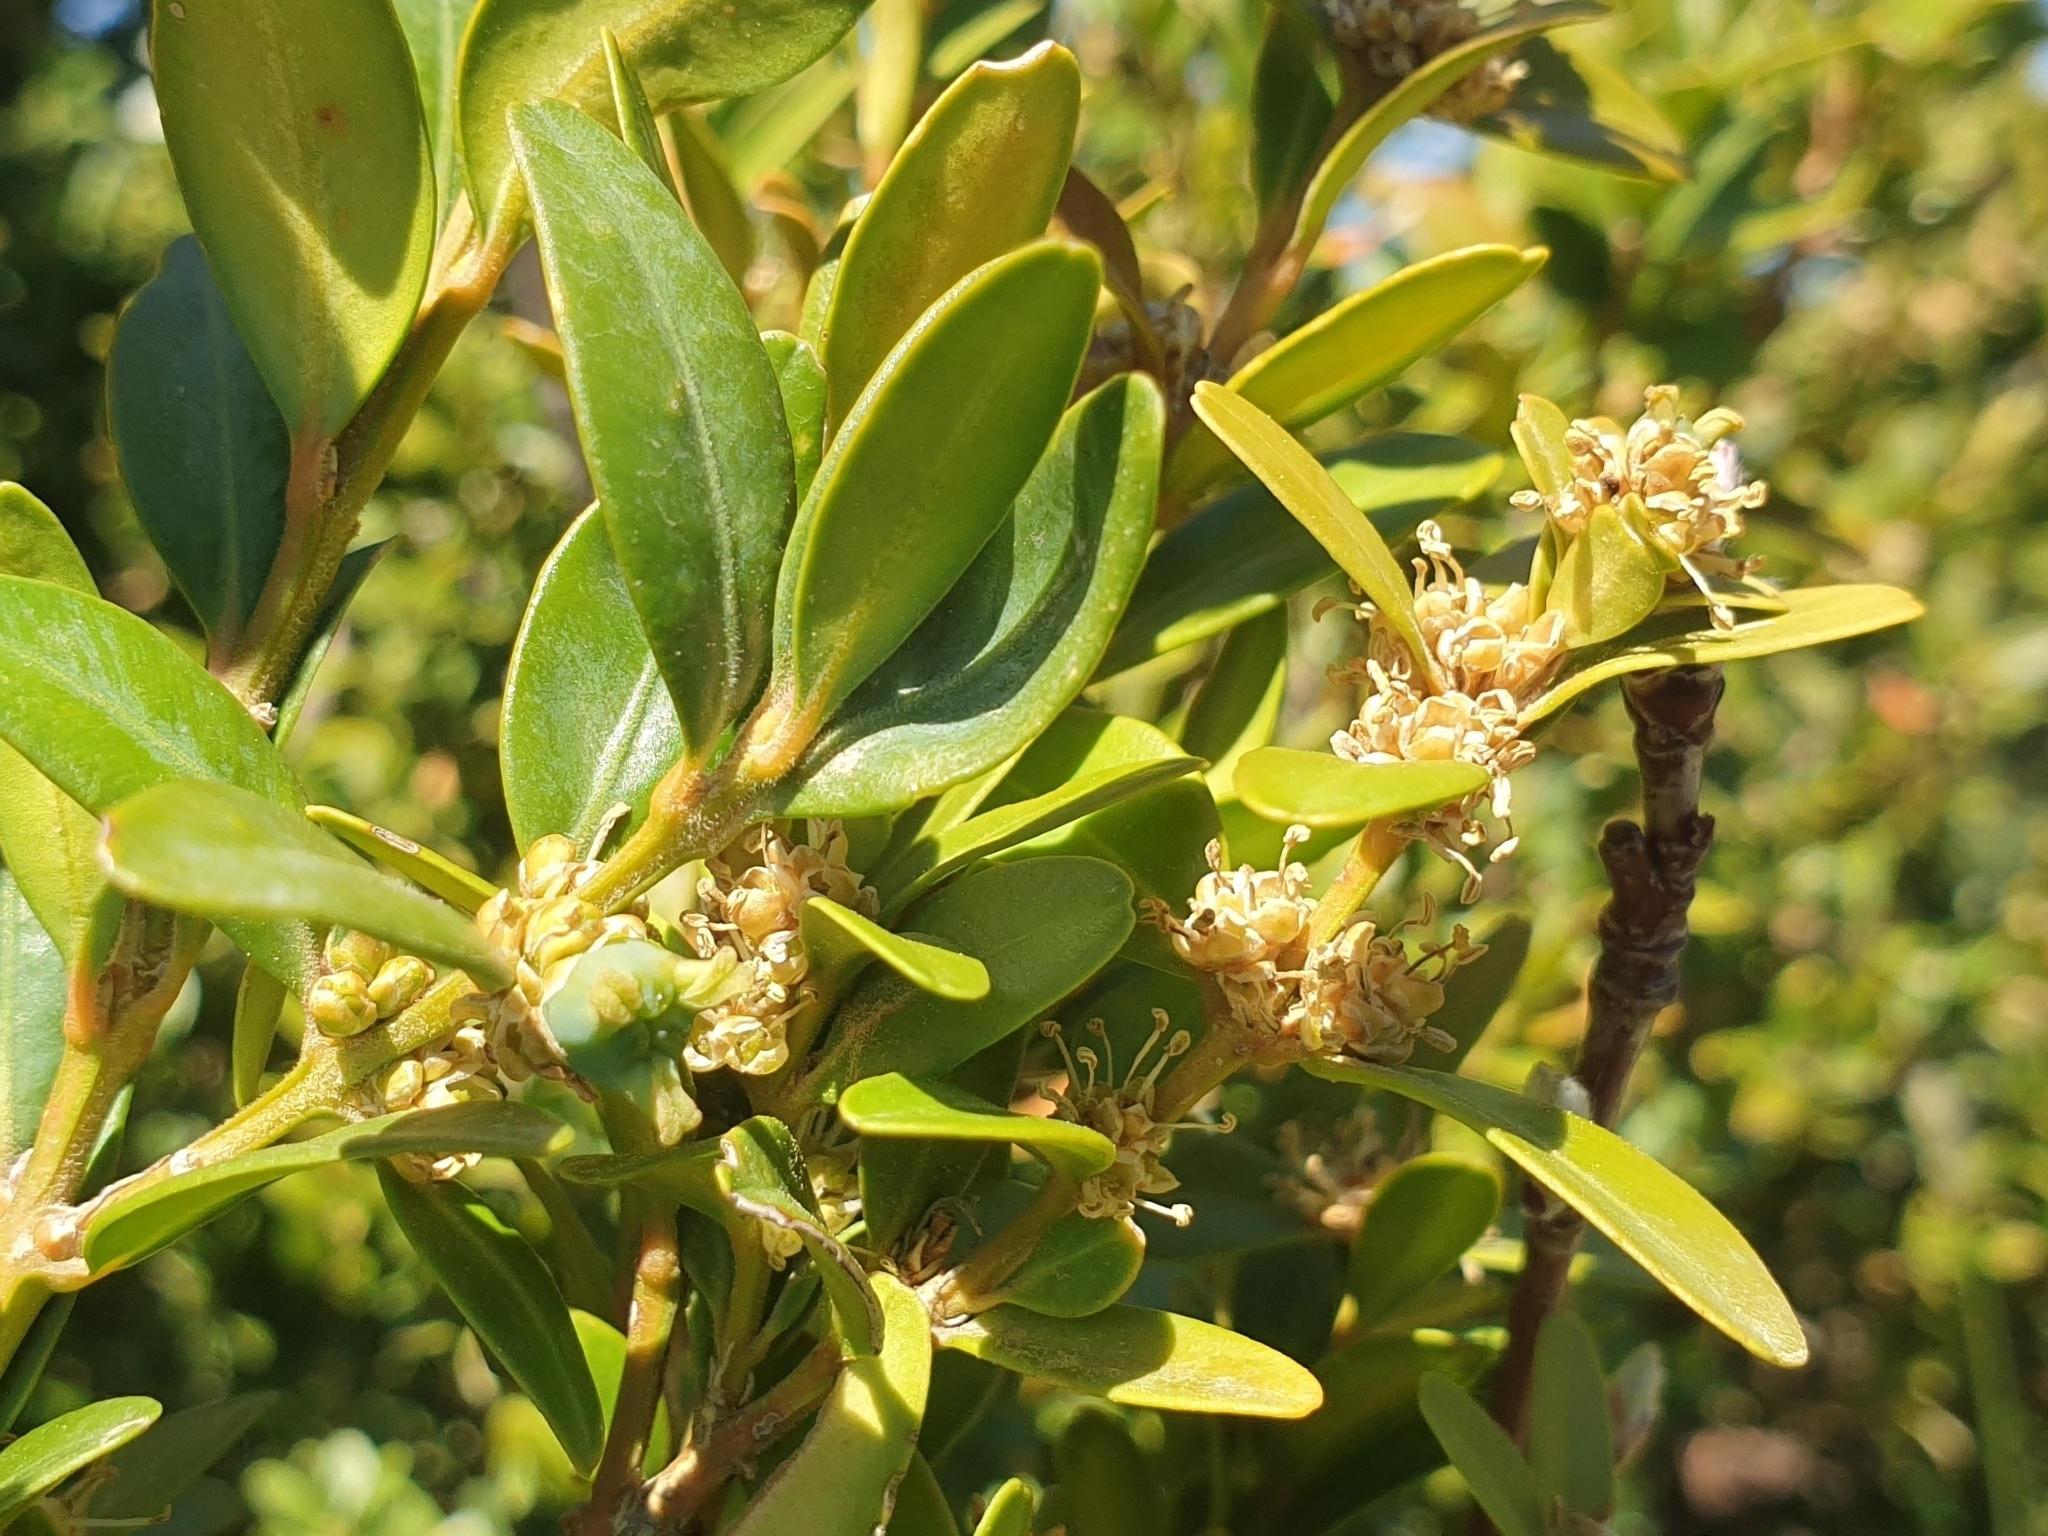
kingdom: Plantae
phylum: Tracheophyta
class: Magnoliopsida
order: Buxales
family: Buxaceae
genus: Buxus
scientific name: Buxus sempervirens
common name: Box
